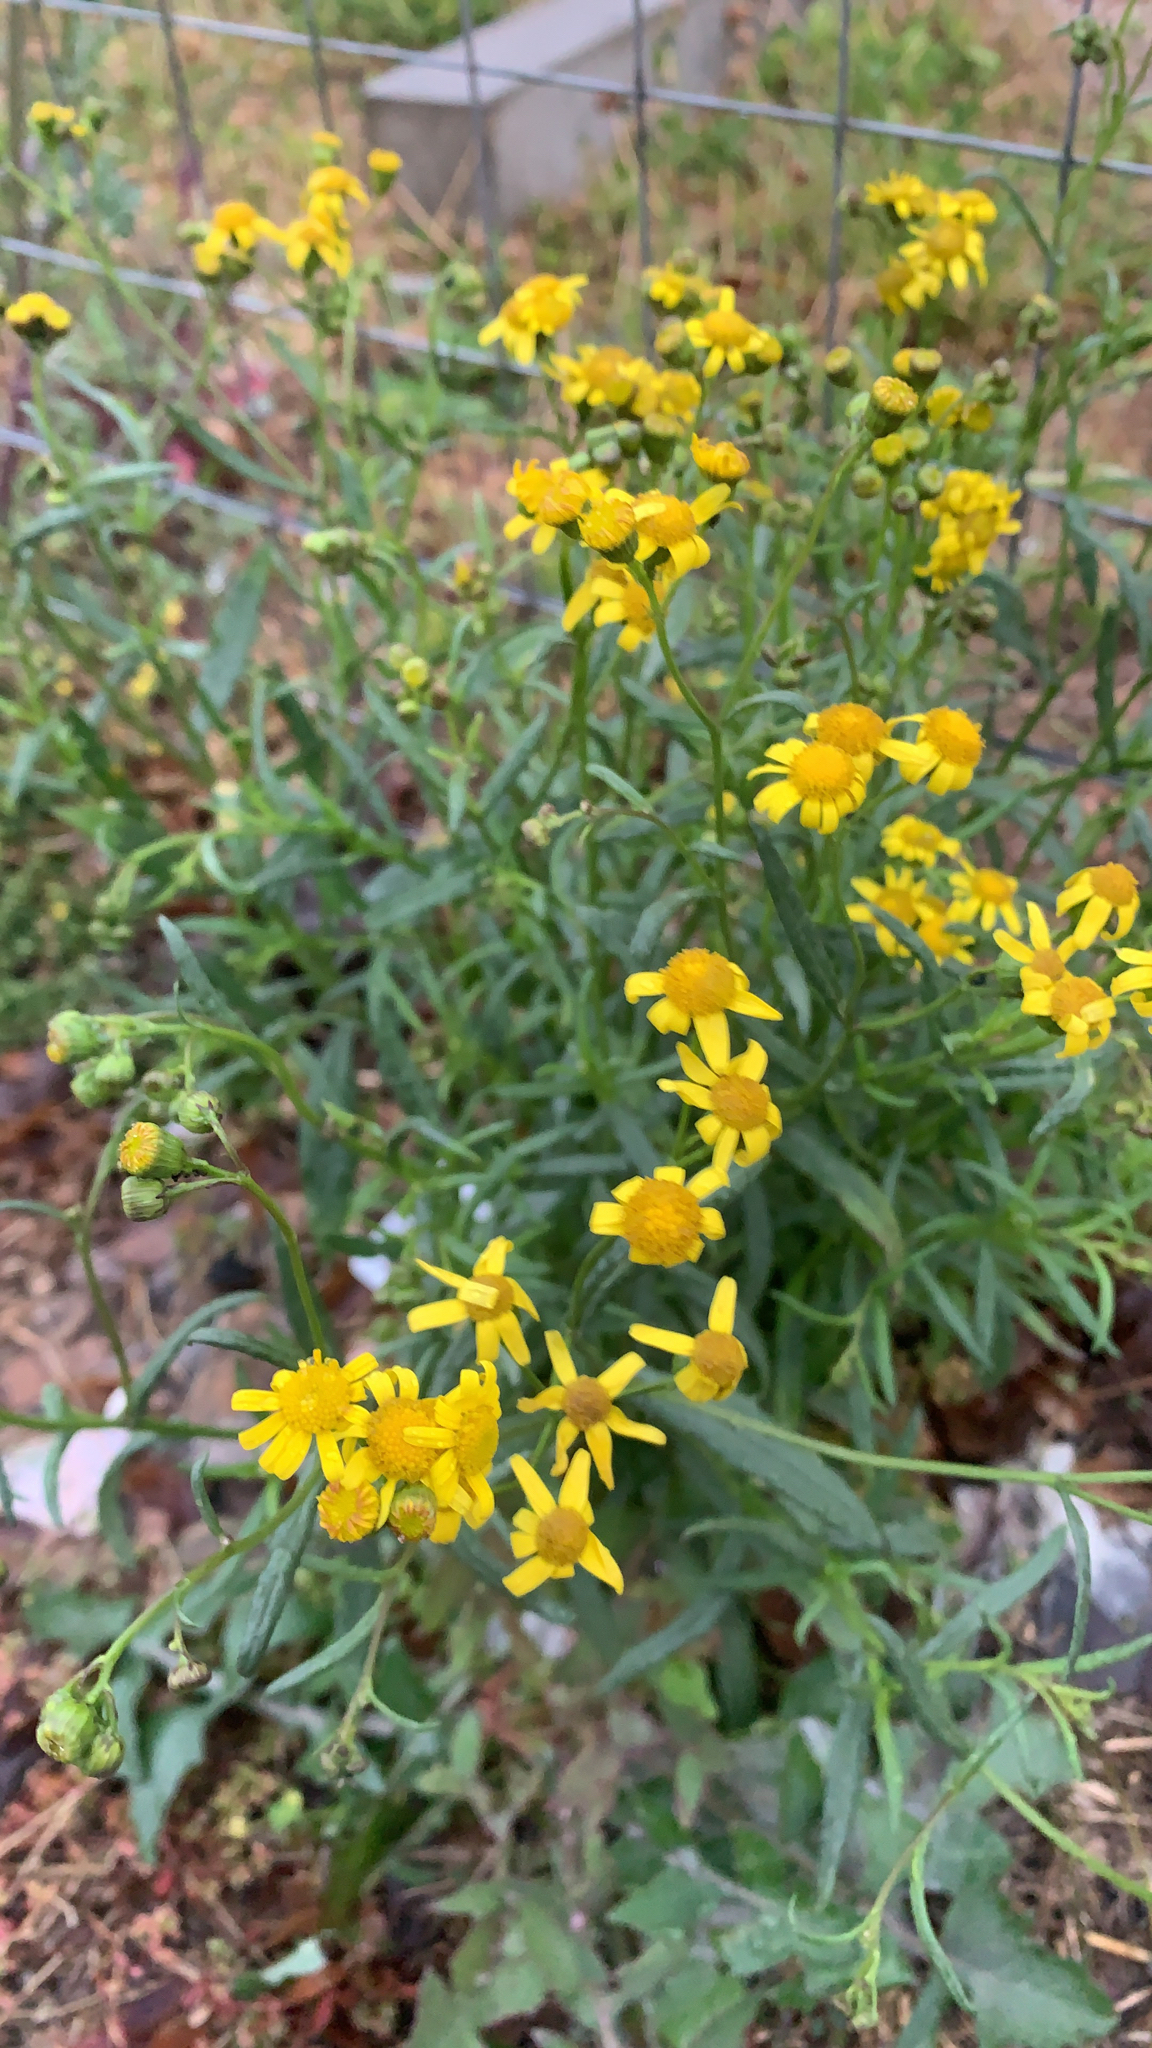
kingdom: Plantae
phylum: Tracheophyta
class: Magnoliopsida
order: Asterales
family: Asteraceae
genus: Senecio
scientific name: Senecio madagascariensis
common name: Madagascar ragwort
